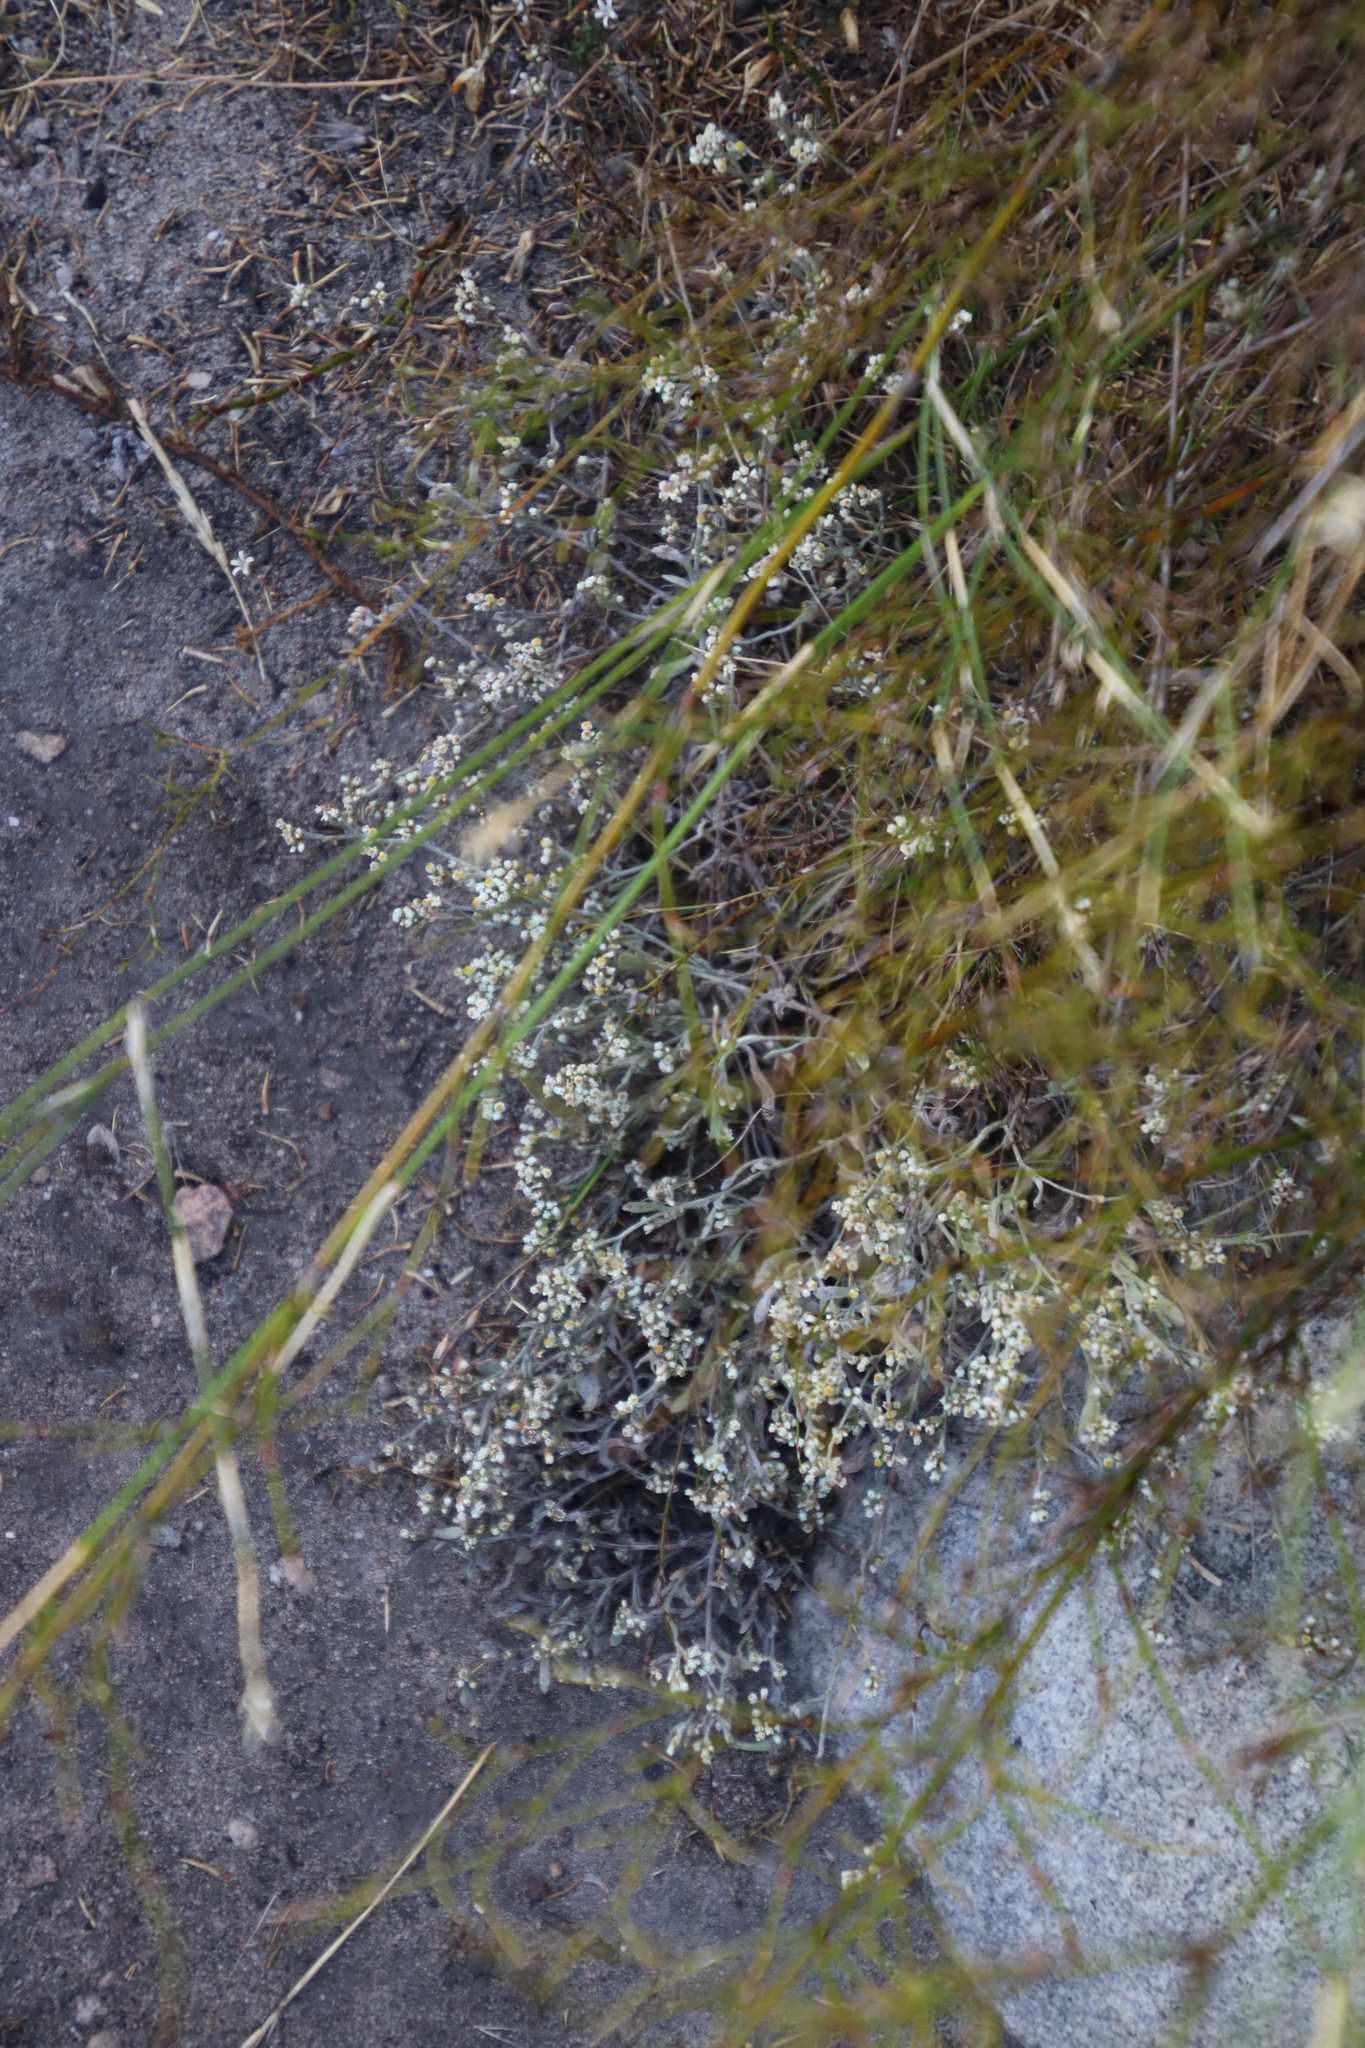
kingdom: Plantae
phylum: Tracheophyta
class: Magnoliopsida
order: Asterales
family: Asteraceae
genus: Helichrysum
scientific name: Helichrysum indicum
